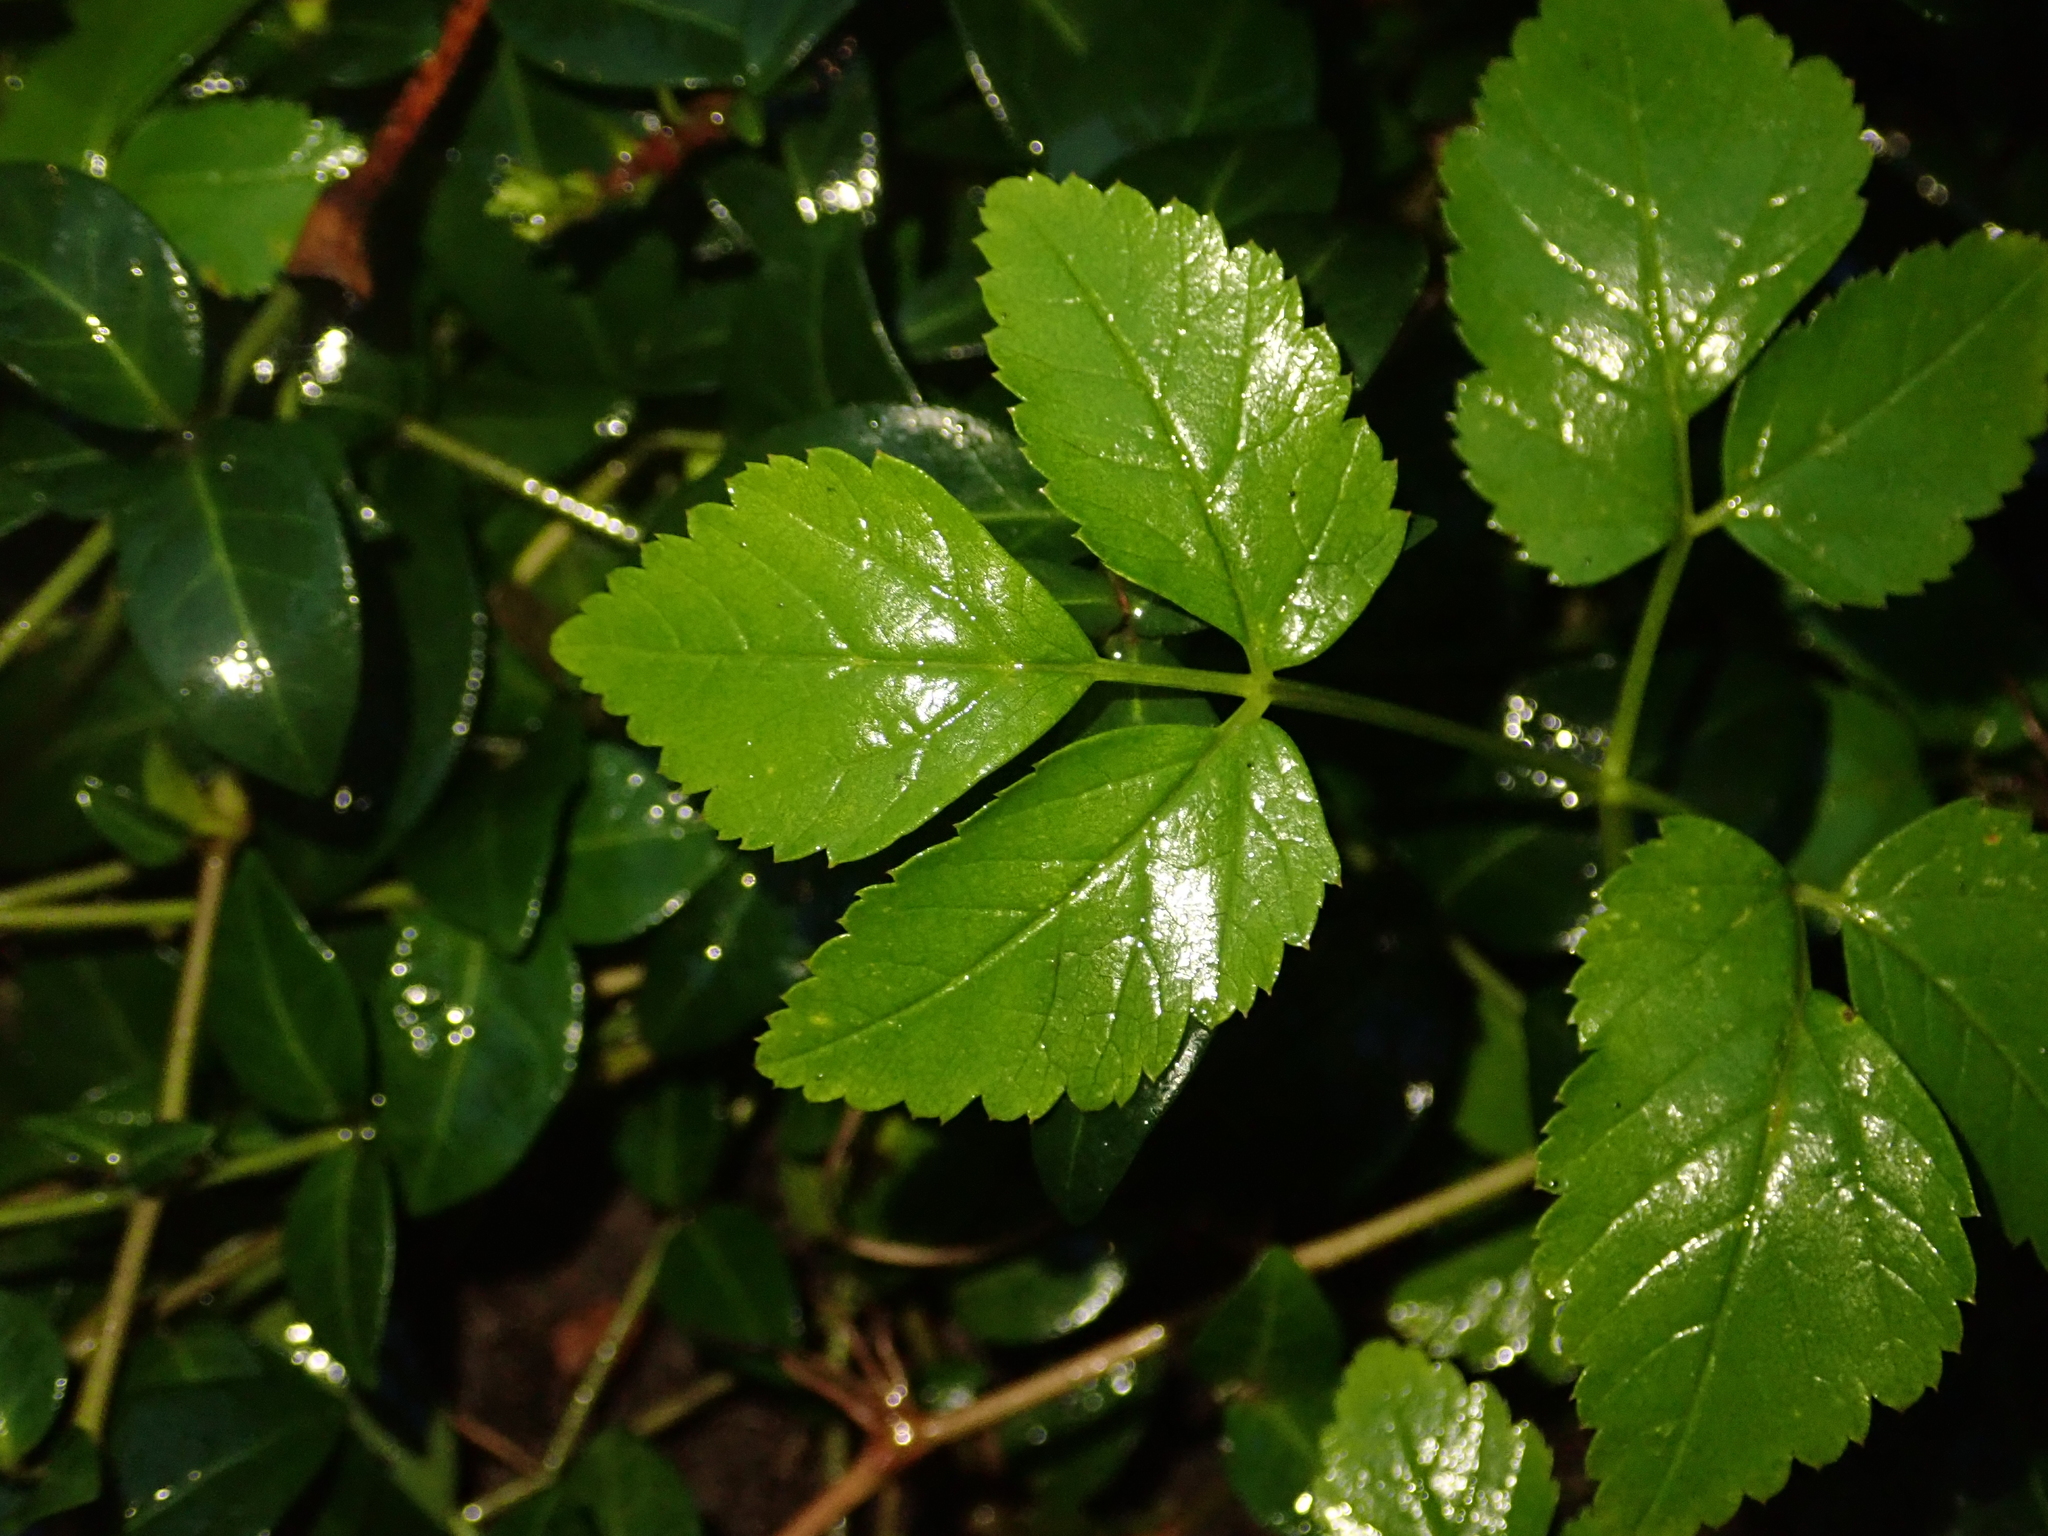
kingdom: Plantae
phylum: Tracheophyta
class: Magnoliopsida
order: Apiales
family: Apiaceae
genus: Aegopodium
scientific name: Aegopodium podagraria
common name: Ground-elder
